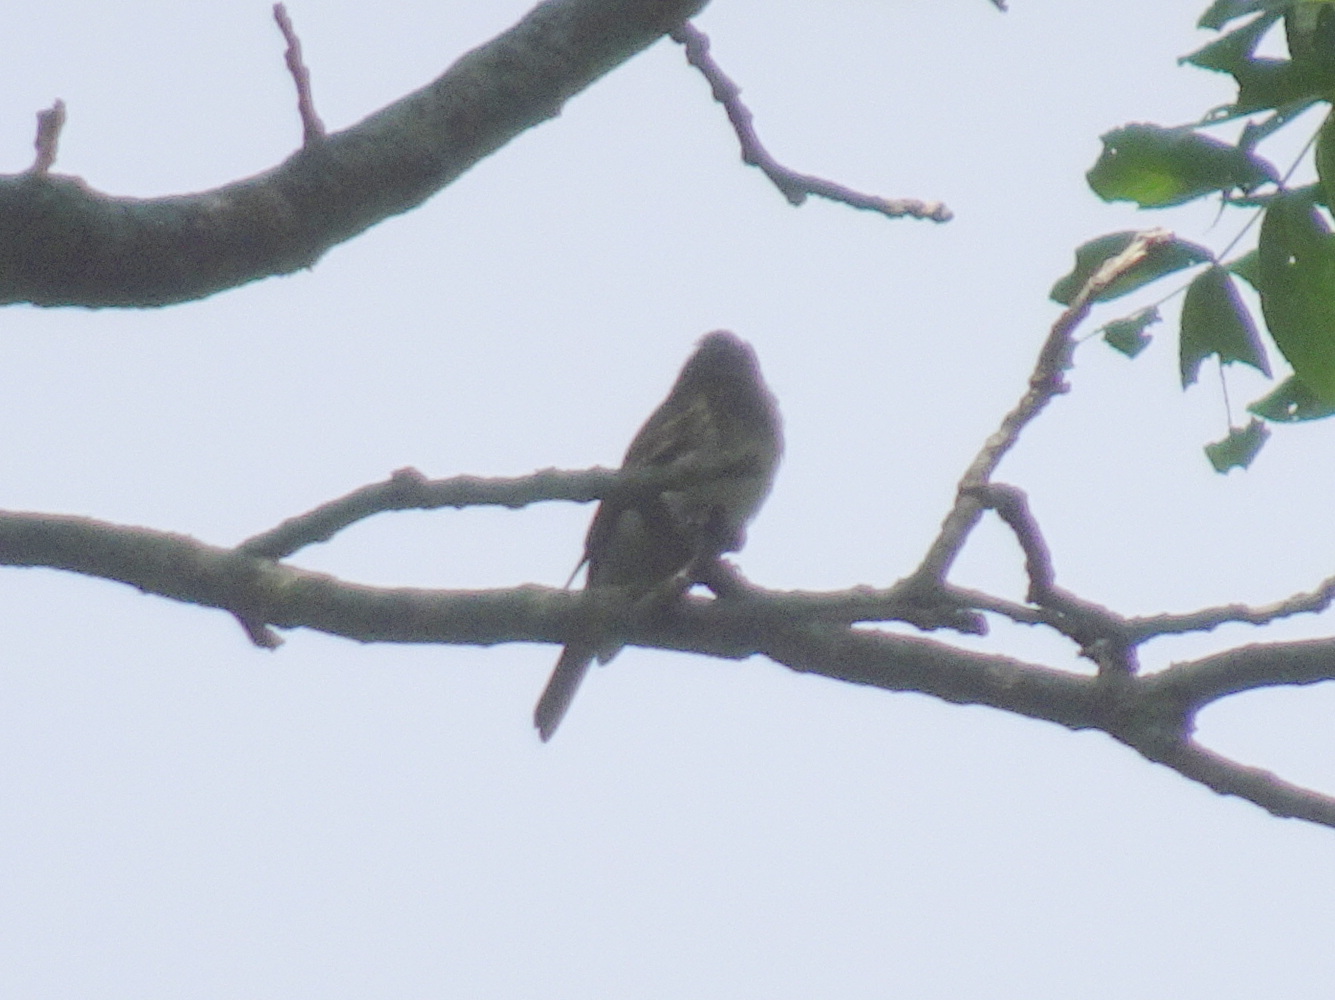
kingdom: Animalia
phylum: Chordata
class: Aves
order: Passeriformes
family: Tyrannidae
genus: Contopus
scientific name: Contopus virens
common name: Eastern wood-pewee
